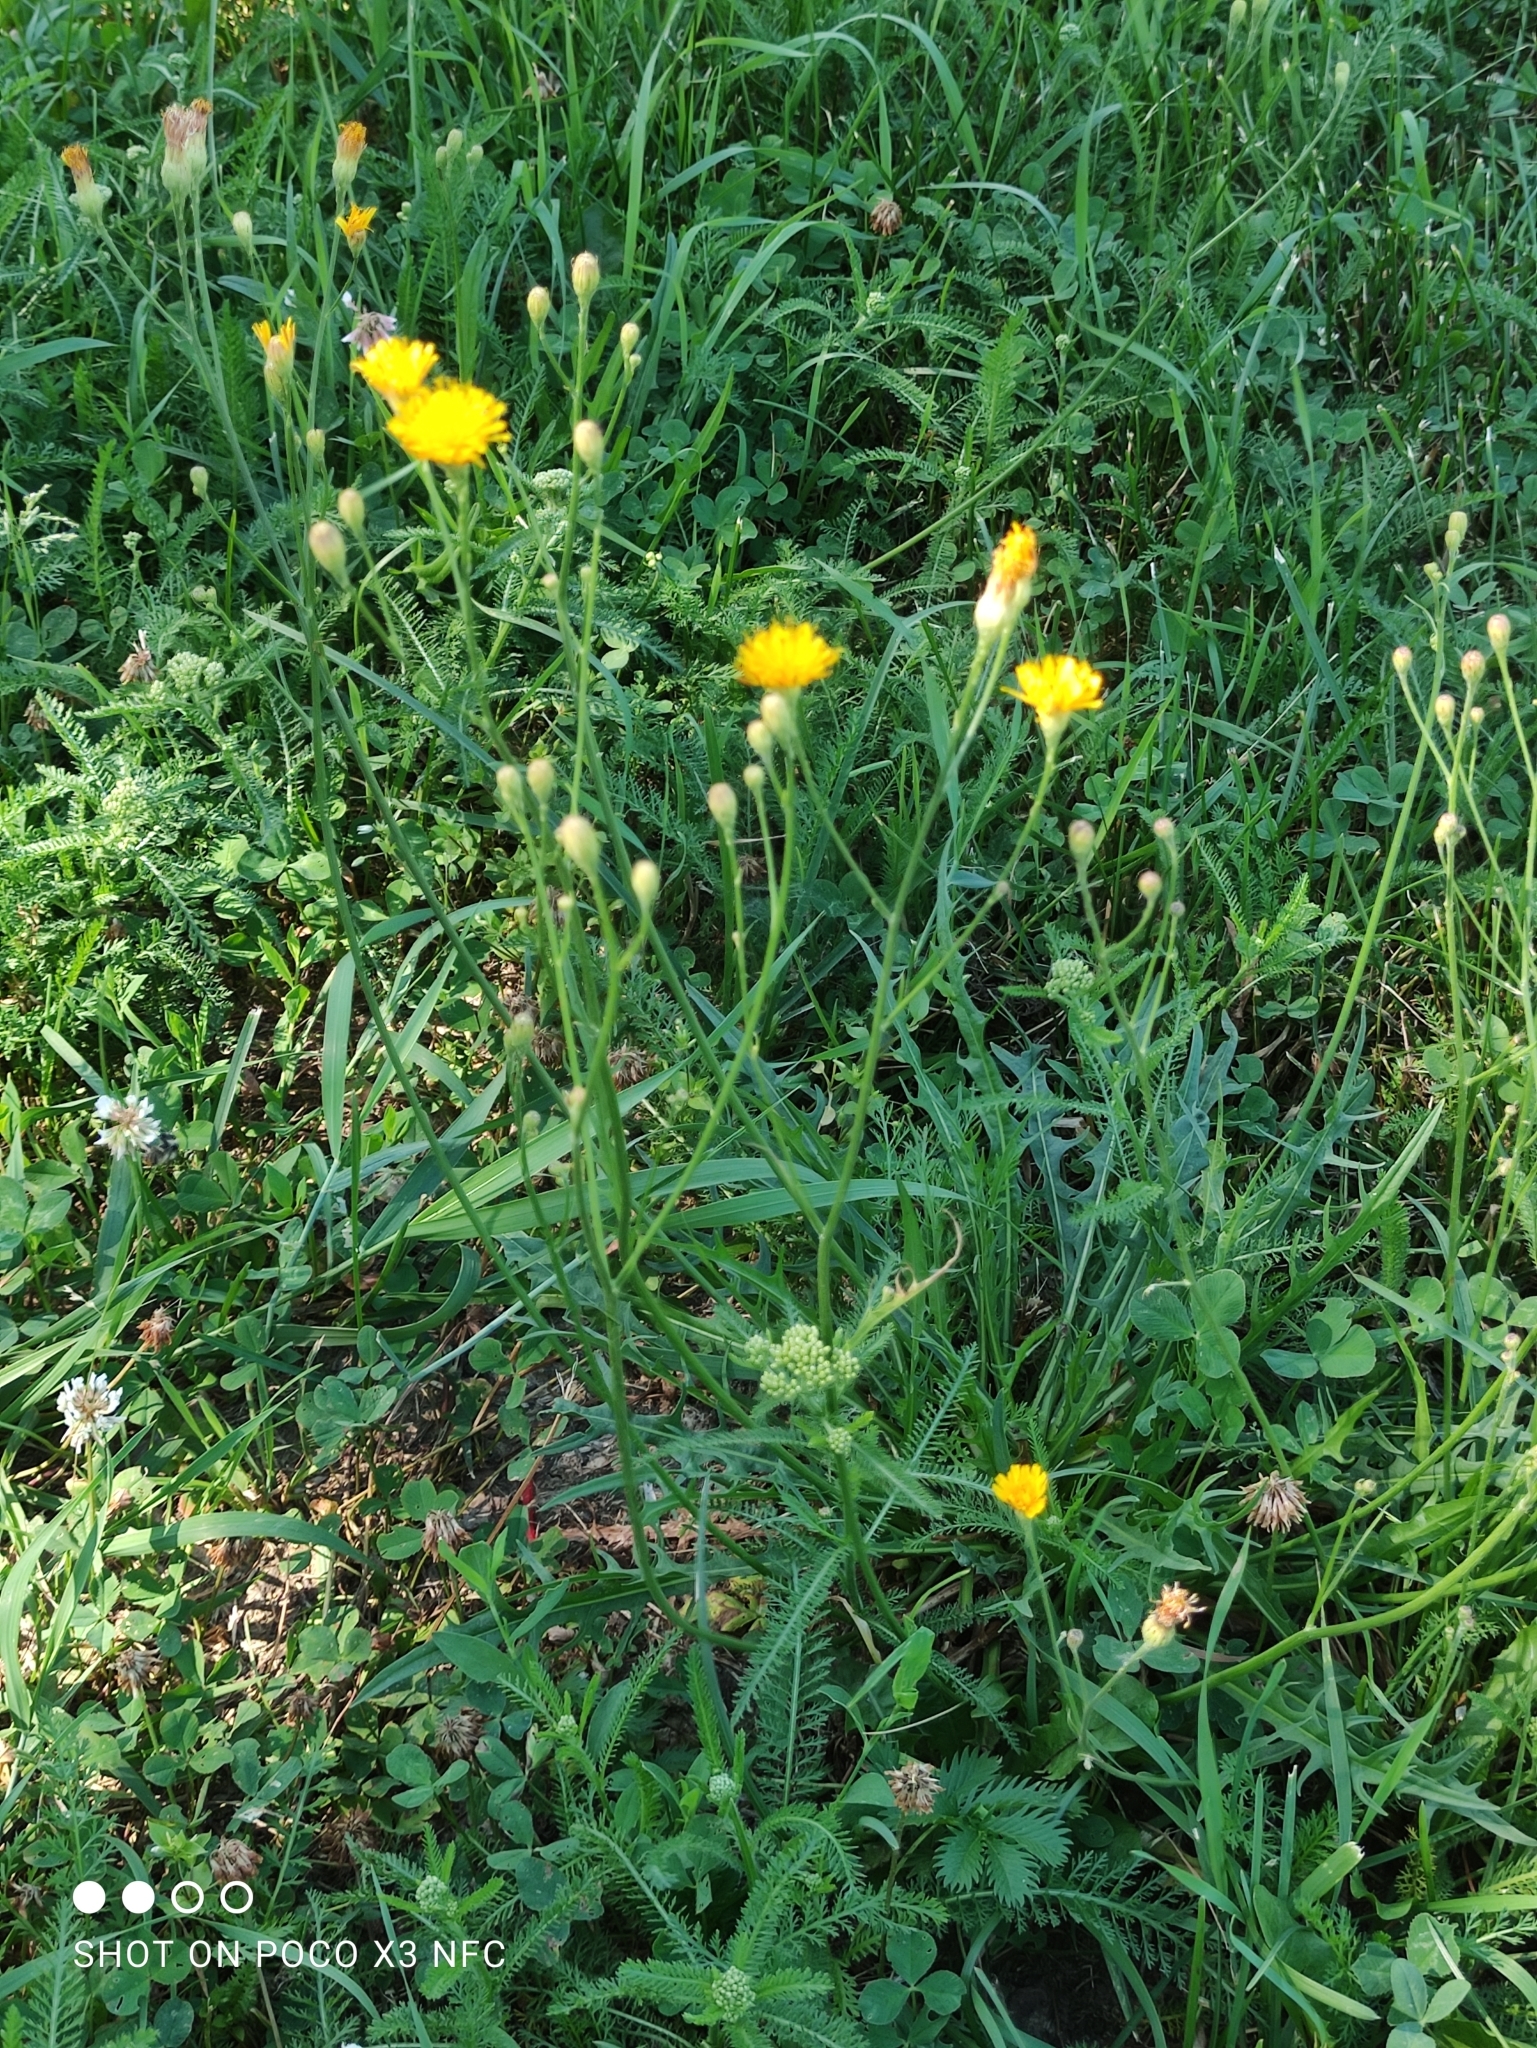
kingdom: Plantae
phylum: Tracheophyta
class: Magnoliopsida
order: Asterales
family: Asteraceae
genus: Scorzoneroides
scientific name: Scorzoneroides autumnalis
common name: Autumn hawkbit
